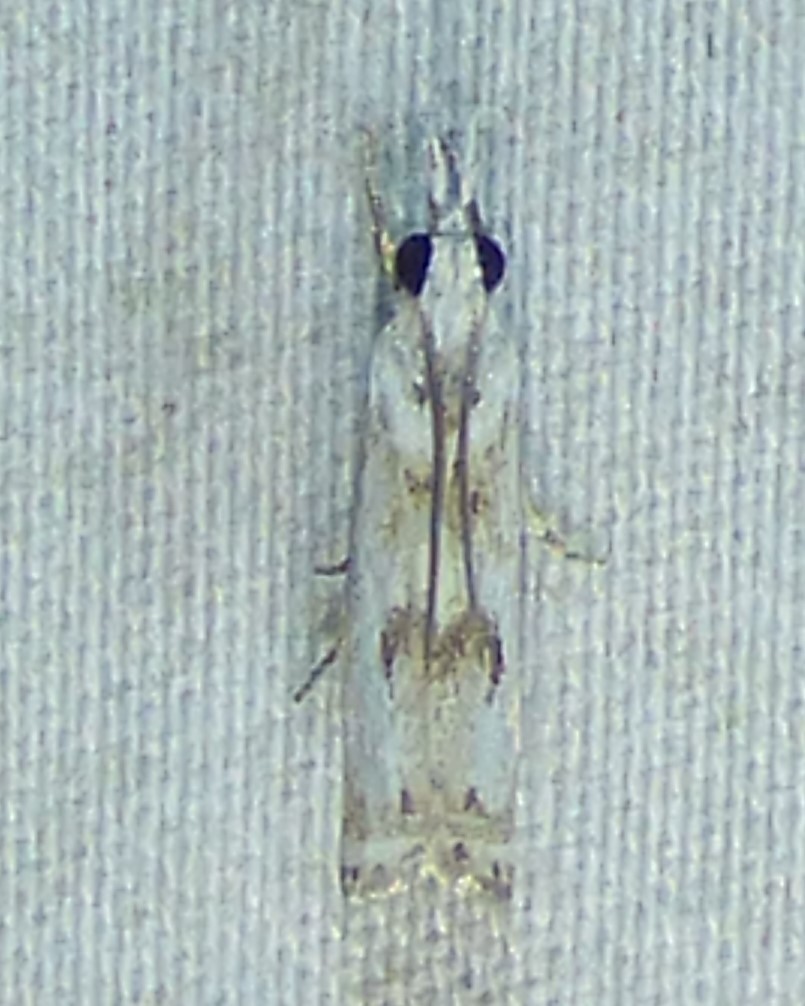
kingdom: Animalia
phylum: Arthropoda
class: Insecta
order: Lepidoptera
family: Crambidae
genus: Microcrambus
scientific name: Microcrambus immunellus
